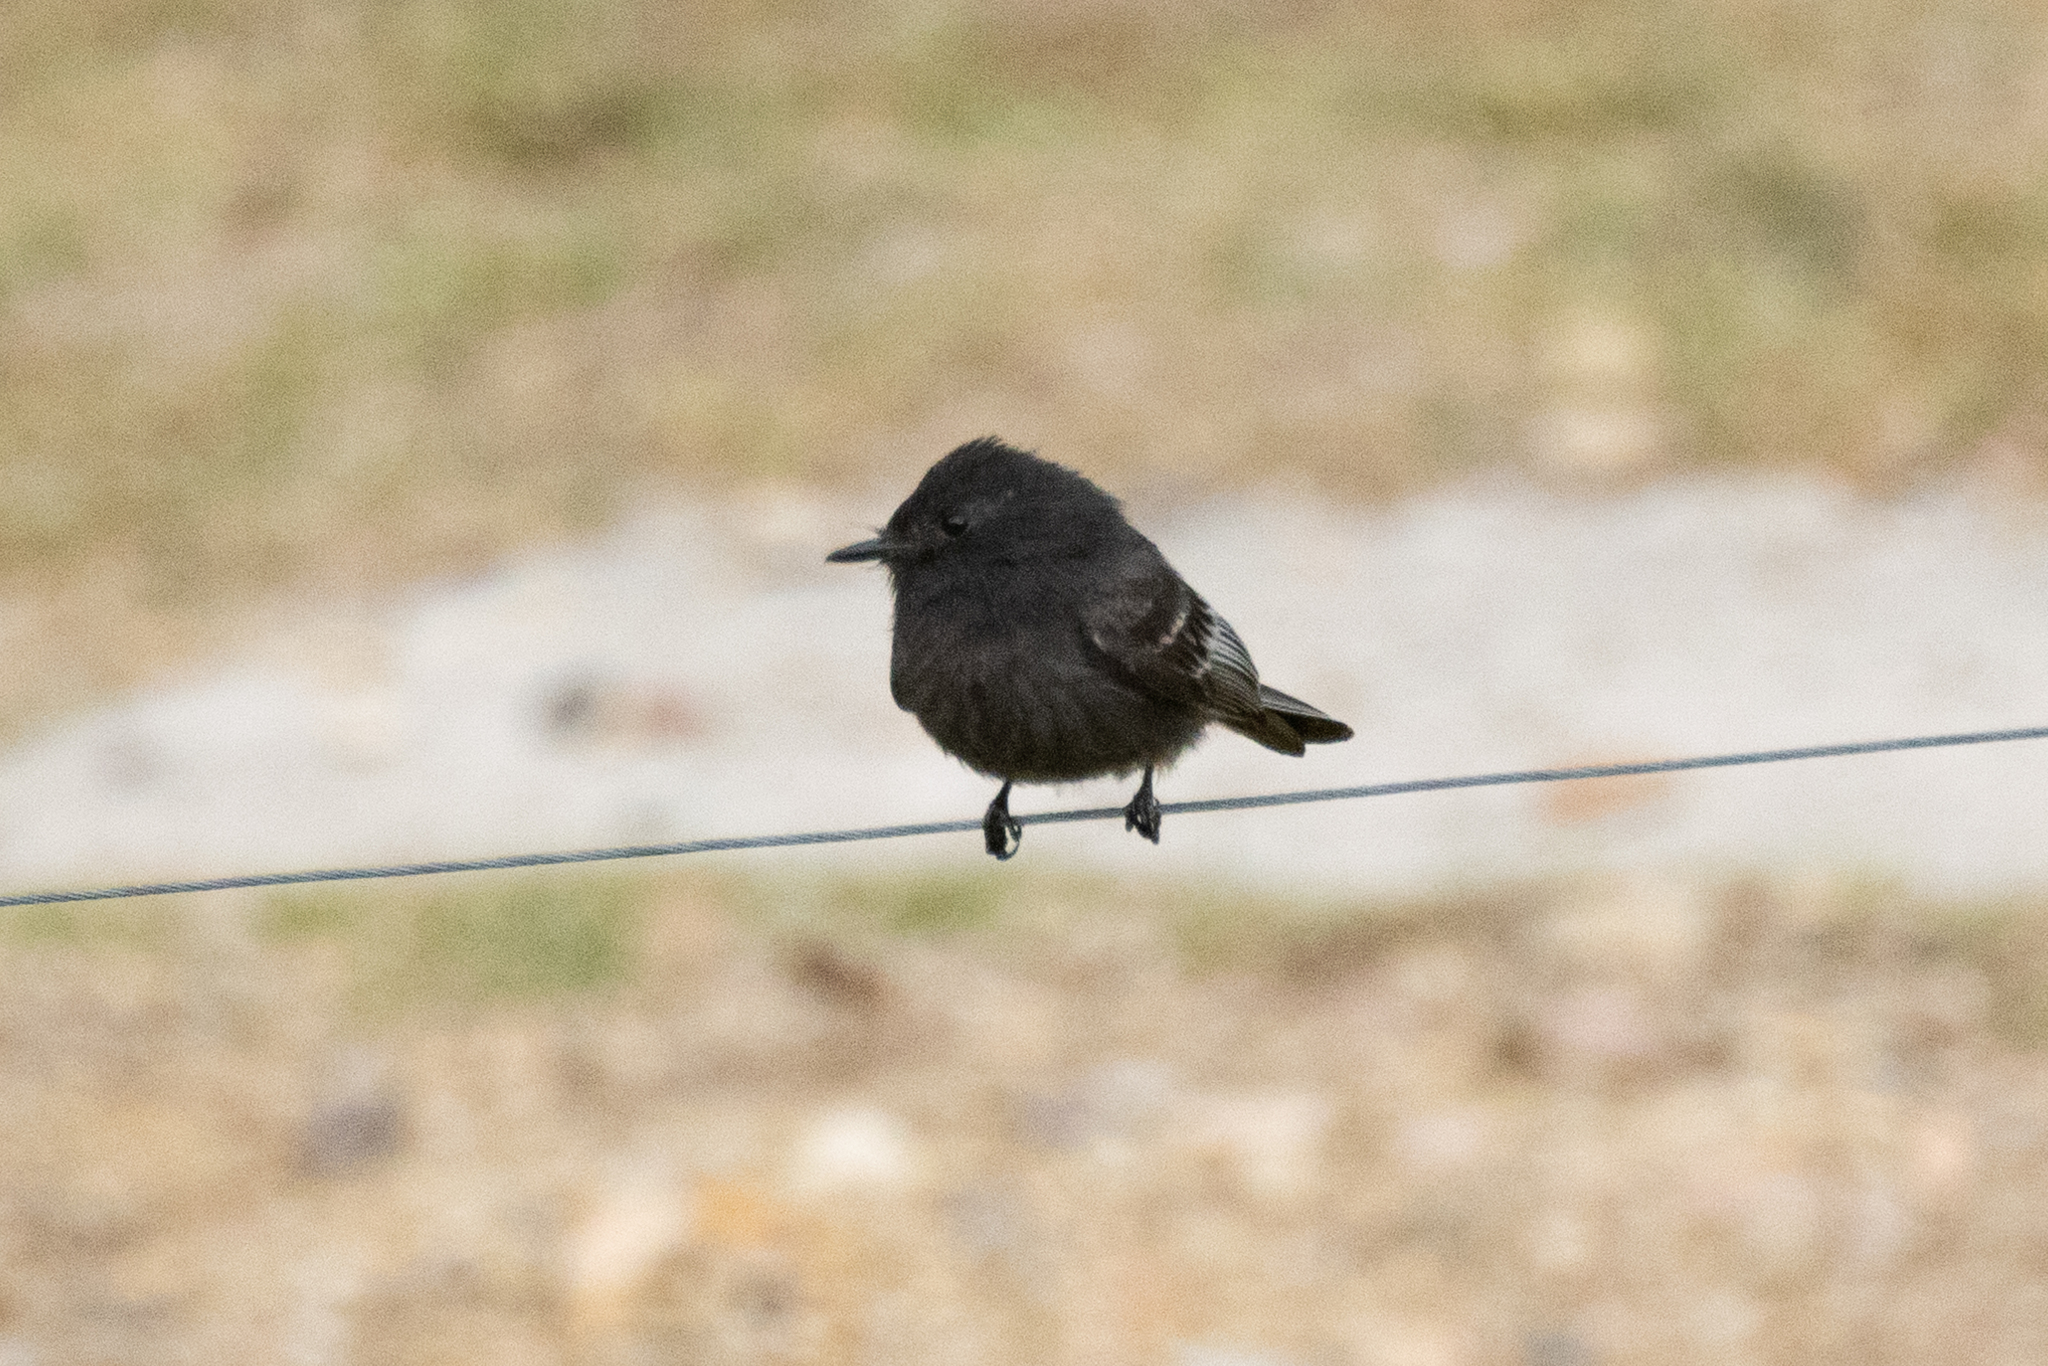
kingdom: Animalia
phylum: Chordata
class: Aves
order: Passeriformes
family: Tyrannidae
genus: Sayornis
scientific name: Sayornis nigricans
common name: Black phoebe
